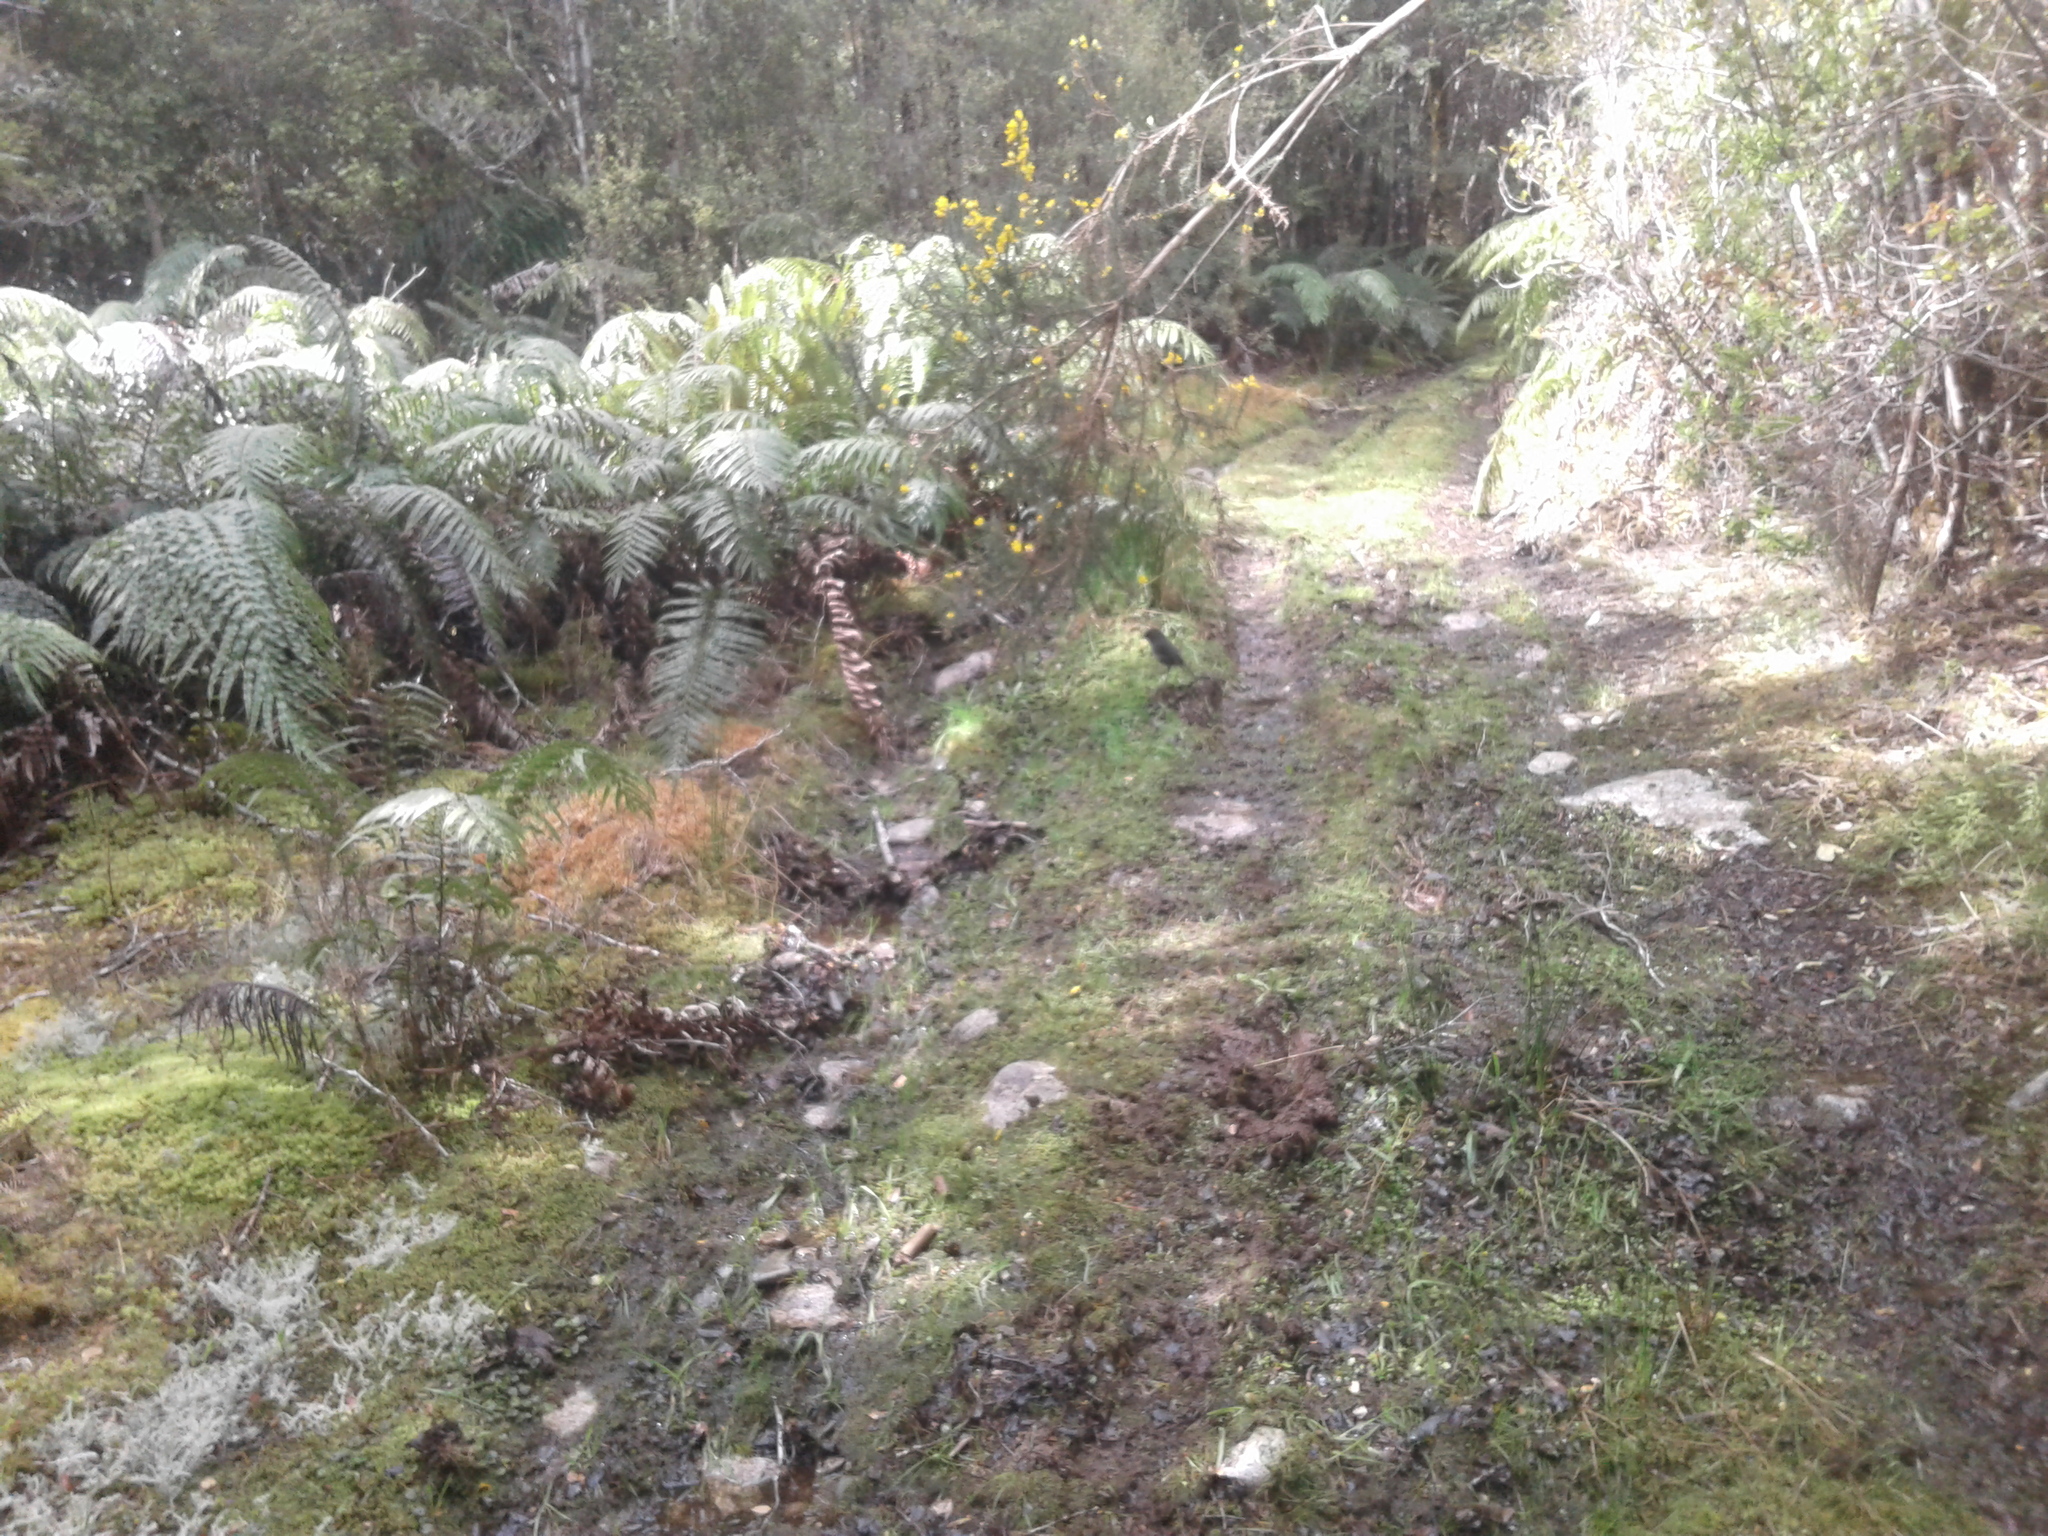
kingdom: Animalia
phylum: Chordata
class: Aves
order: Passeriformes
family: Petroicidae
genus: Petroica
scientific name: Petroica australis
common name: New zealand robin
